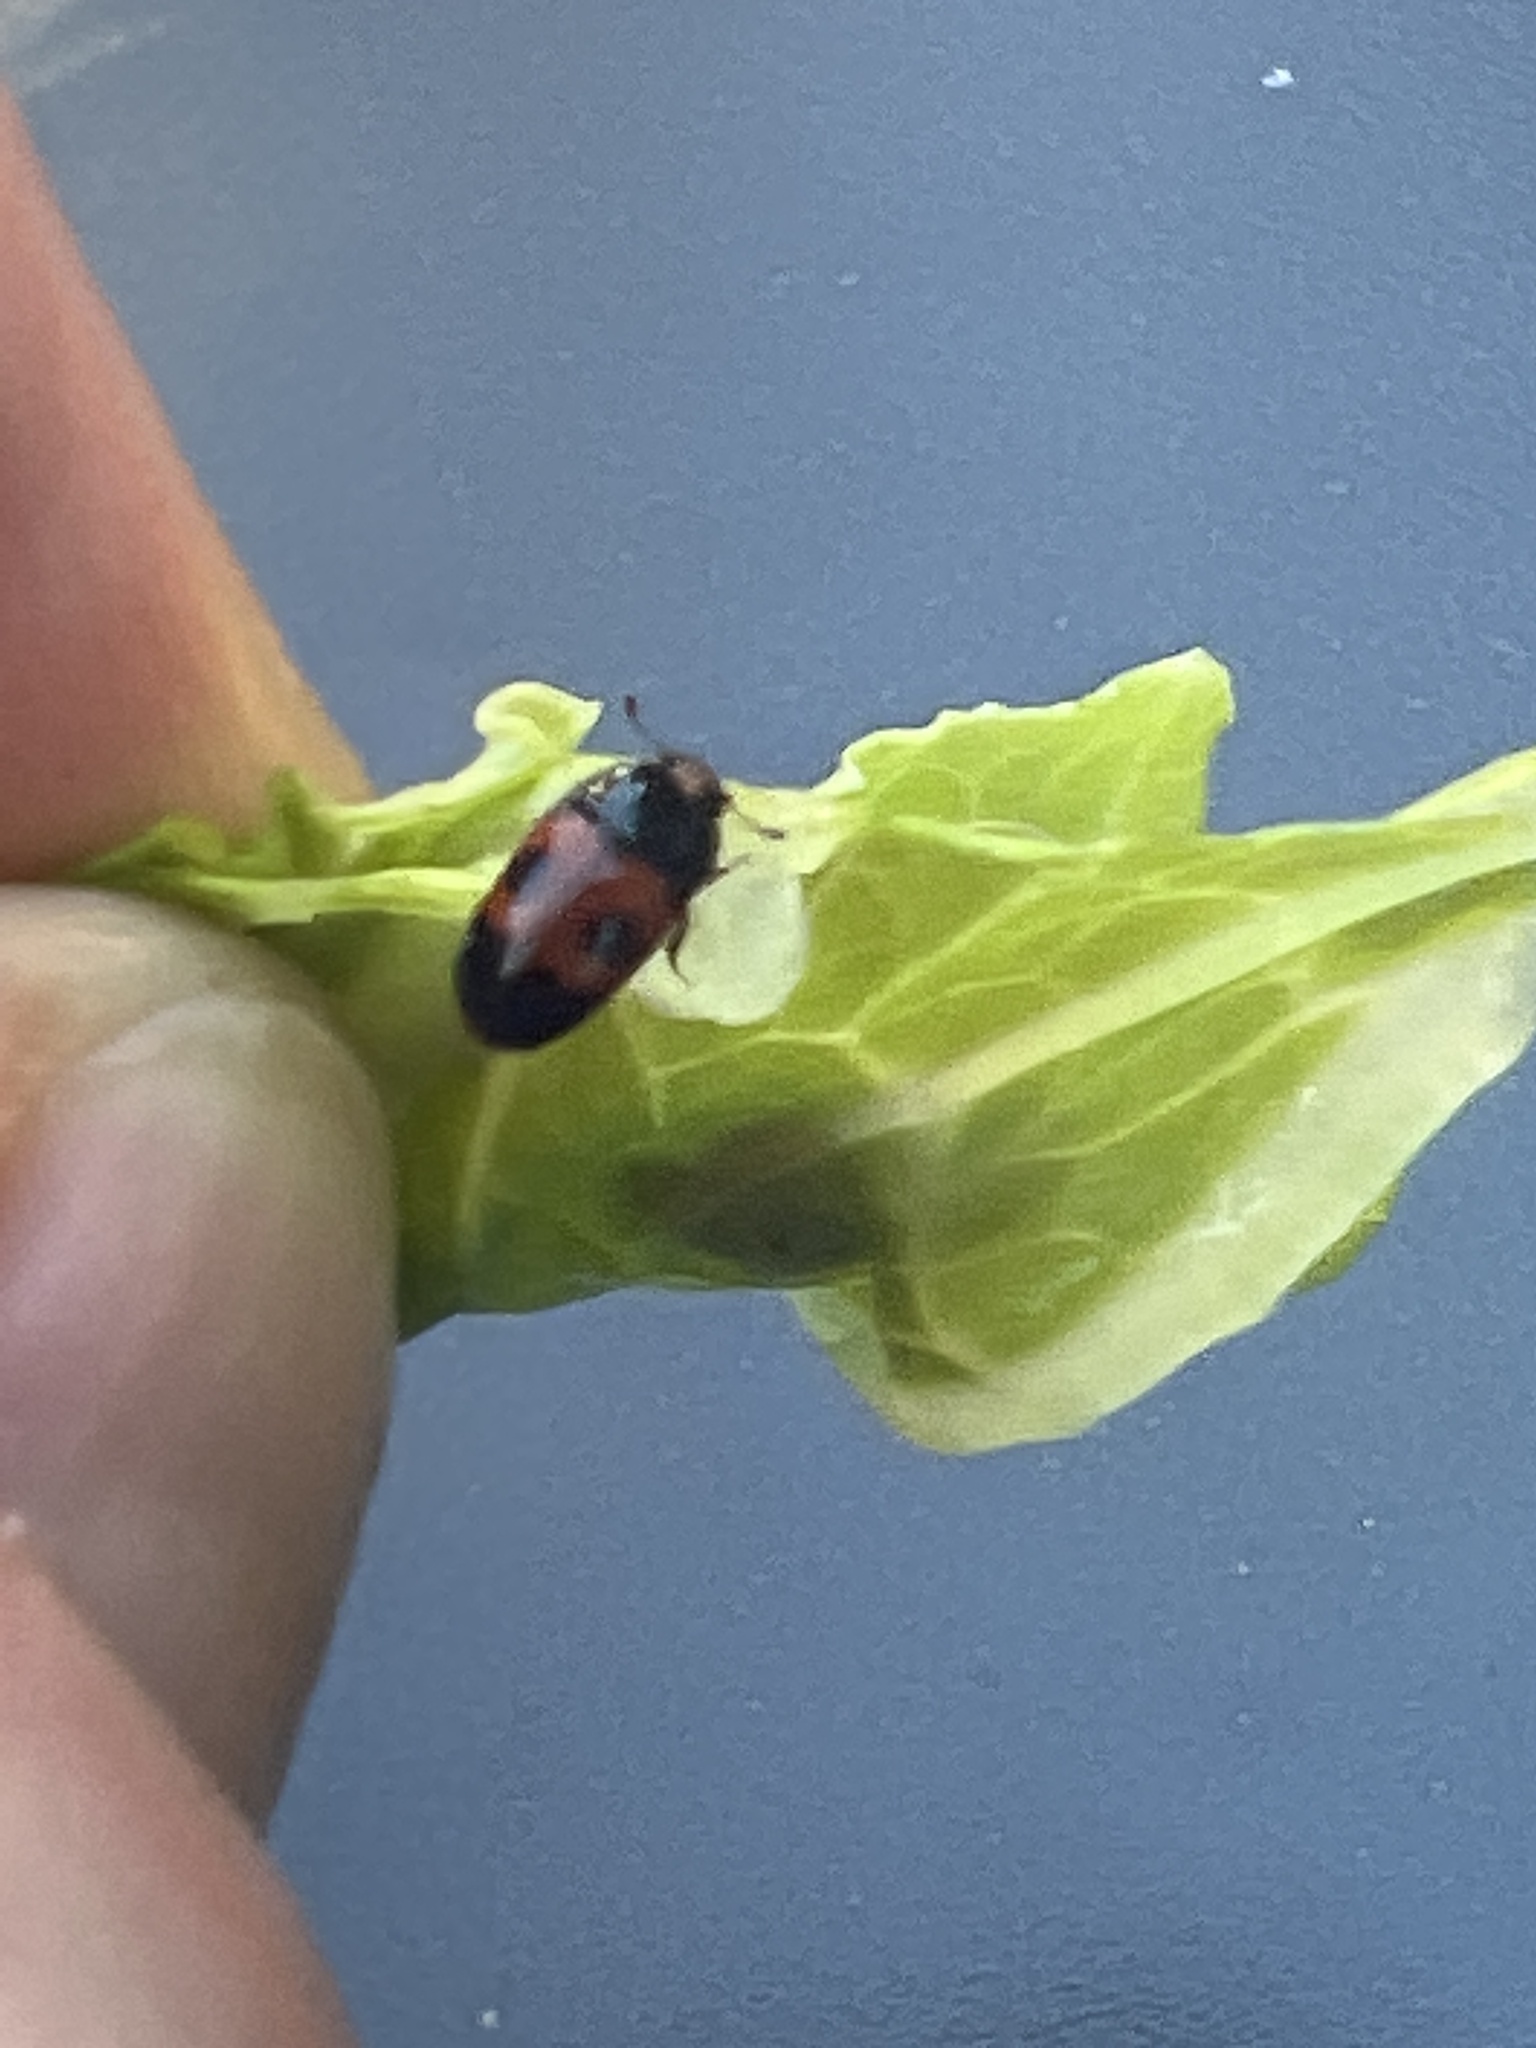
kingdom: Animalia
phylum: Arthropoda
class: Insecta
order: Coleoptera
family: Nitidulidae
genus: Glischrochilus
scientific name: Glischrochilus sanguinolentus
